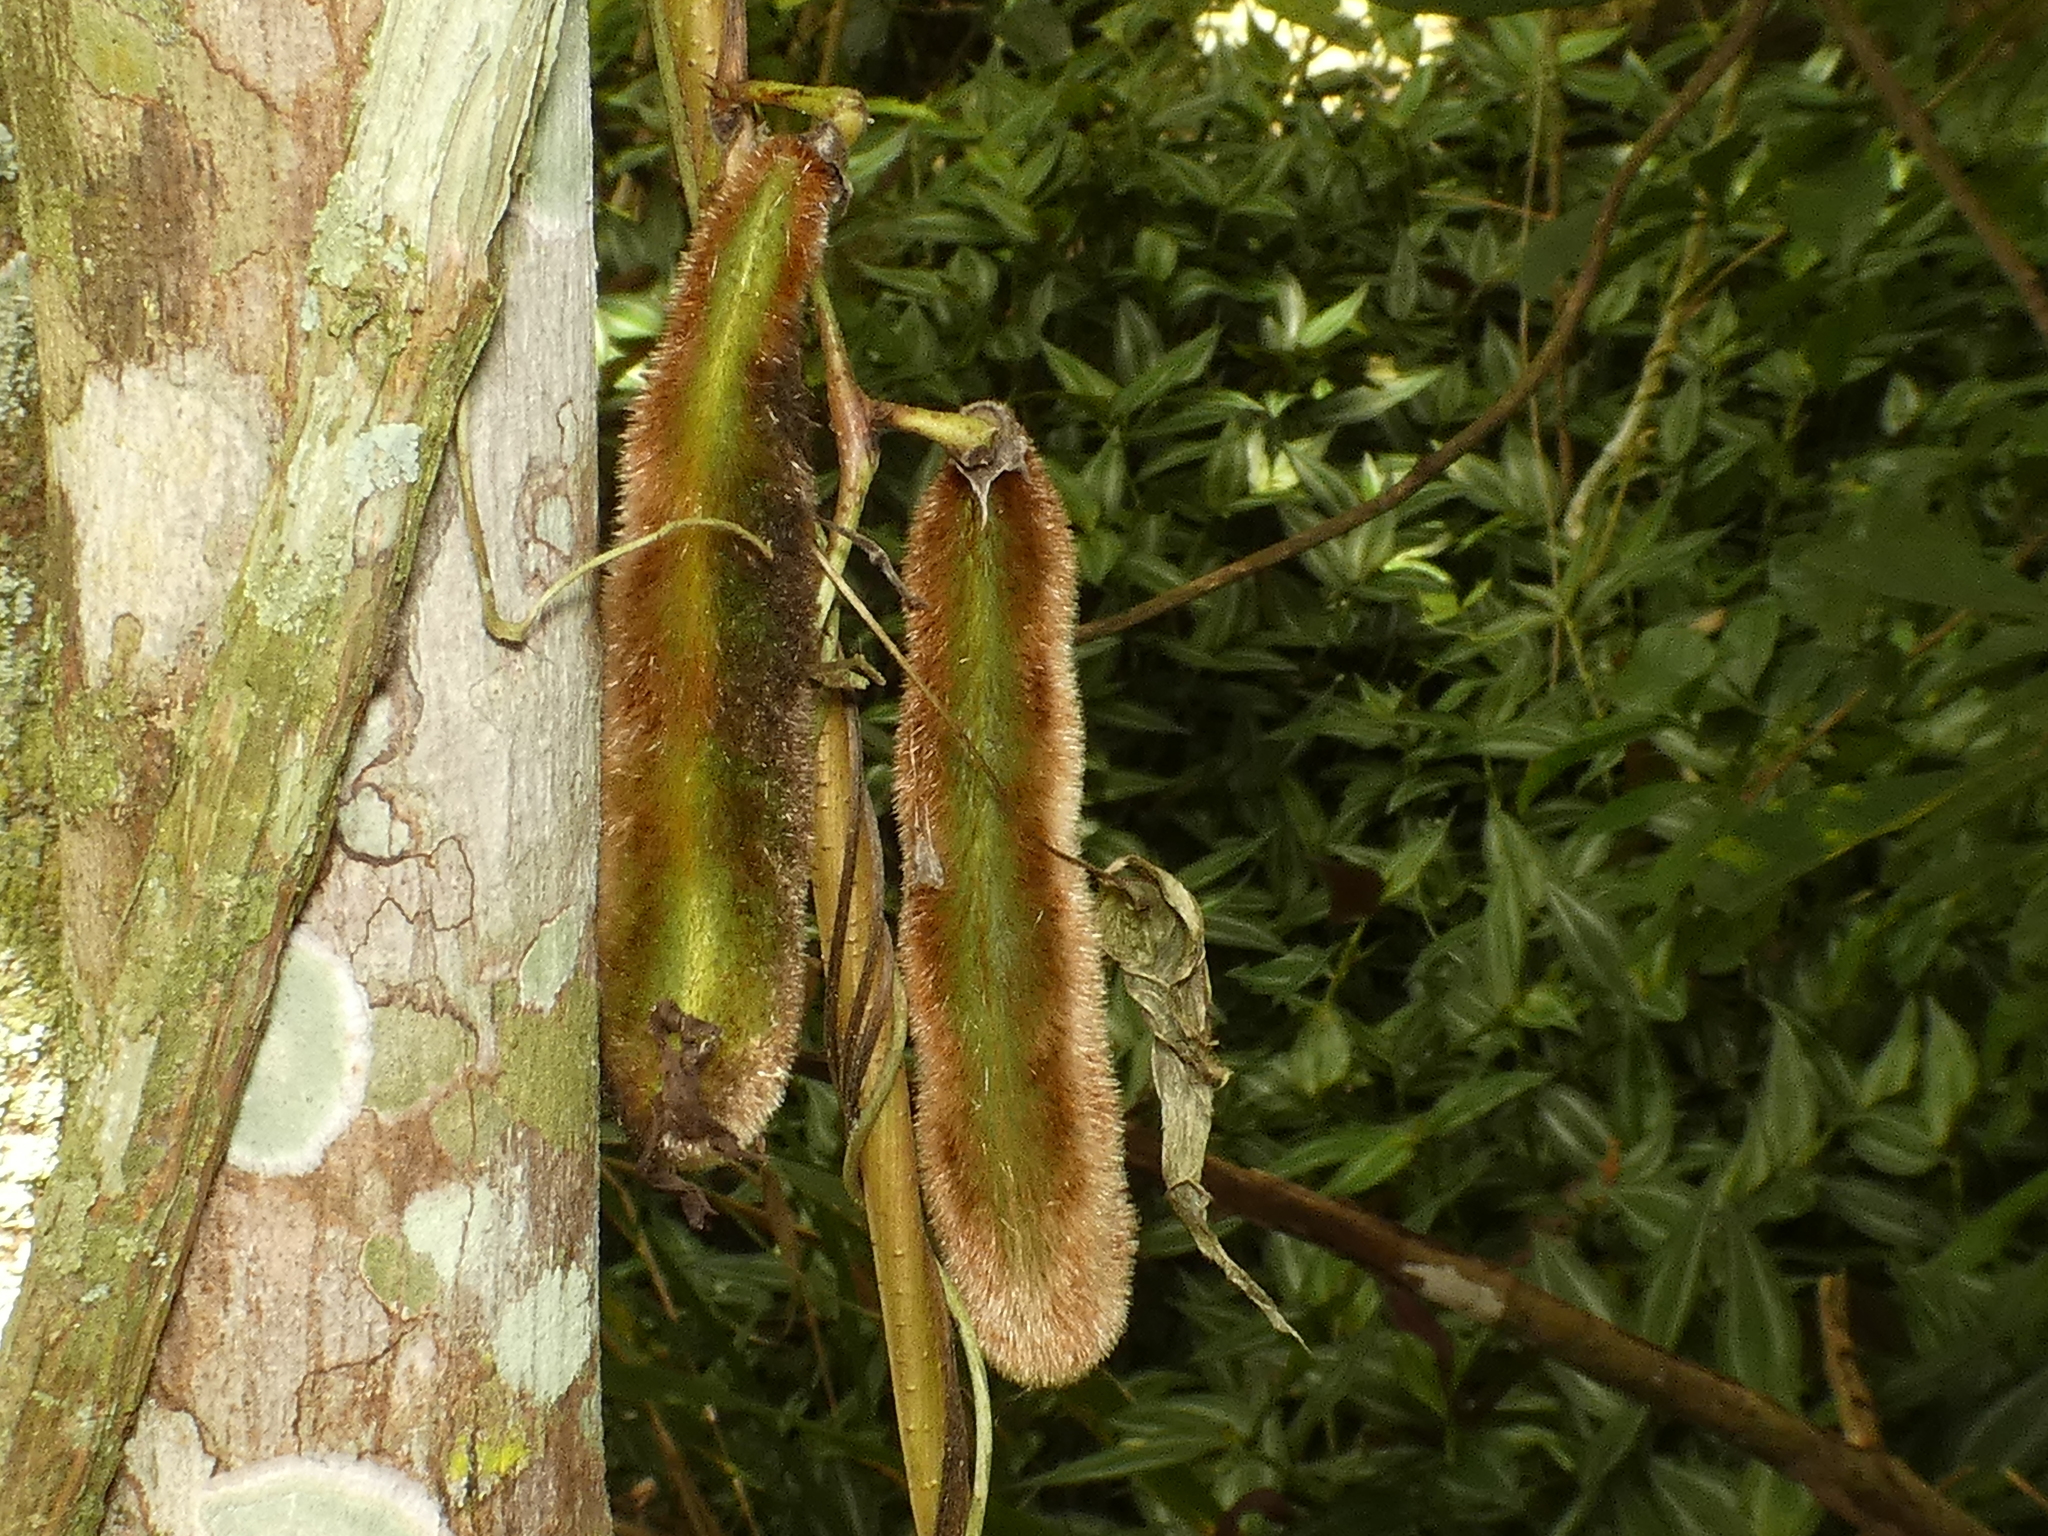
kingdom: Plantae
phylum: Tracheophyta
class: Magnoliopsida
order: Fabales
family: Fabaceae
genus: Mucuna
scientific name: Mucuna pruriens
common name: Cow-itch
